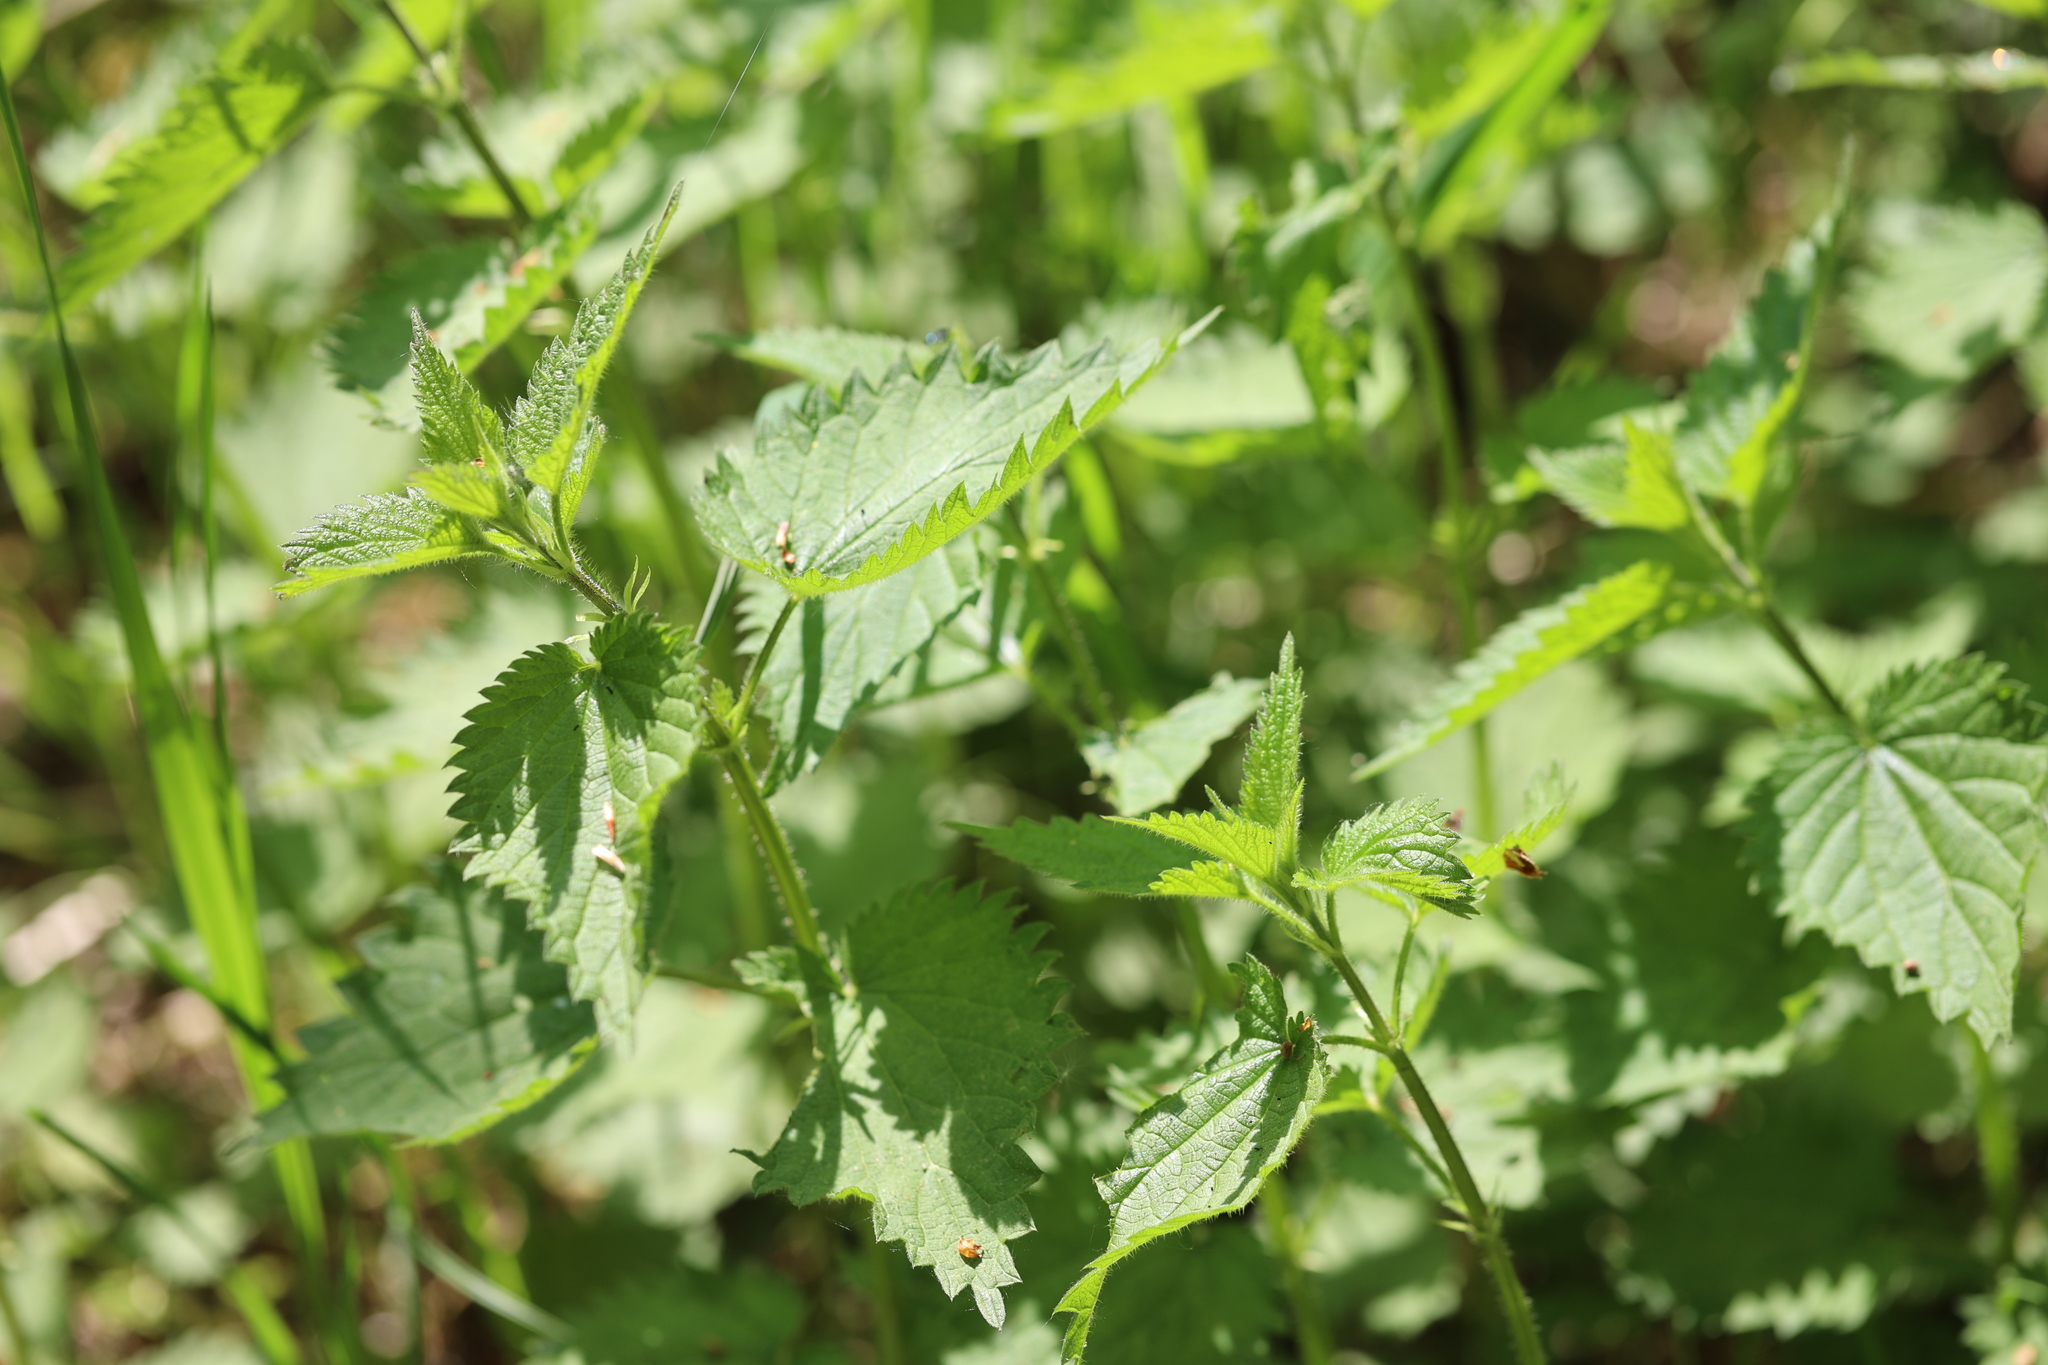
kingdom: Plantae
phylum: Tracheophyta
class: Magnoliopsida
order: Rosales
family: Urticaceae
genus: Urtica
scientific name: Urtica dioica
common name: Common nettle
